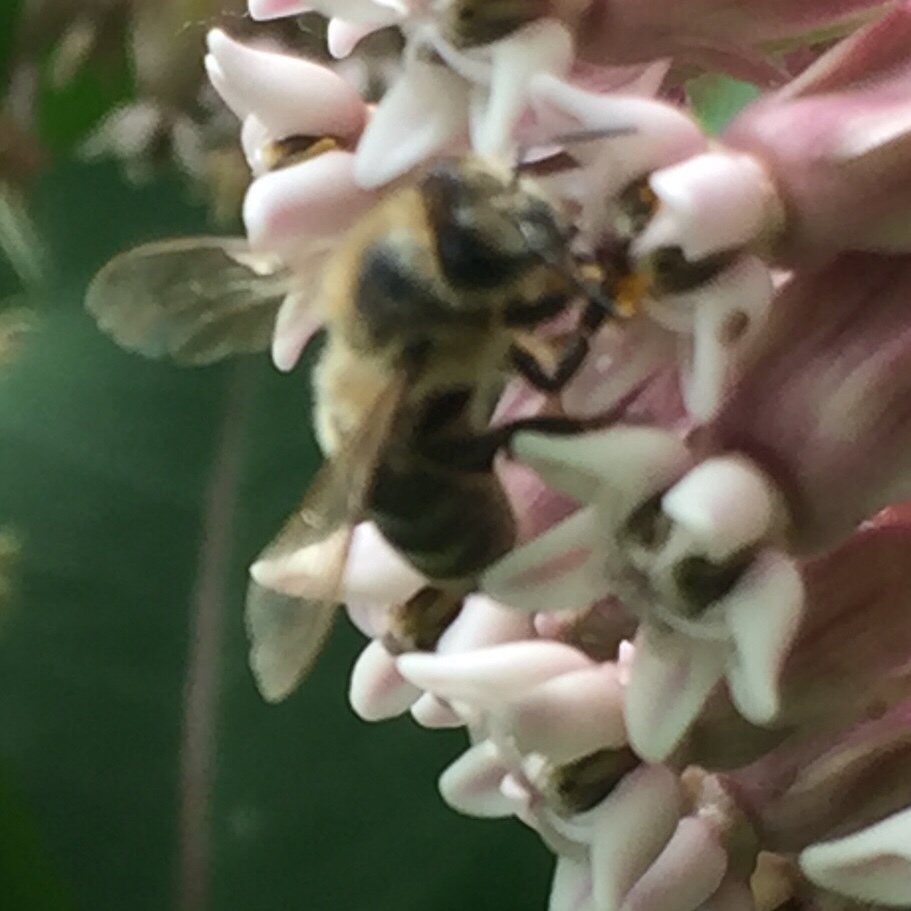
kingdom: Animalia
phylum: Arthropoda
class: Insecta
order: Hymenoptera
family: Apidae
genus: Apis
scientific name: Apis mellifera
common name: Honey bee
